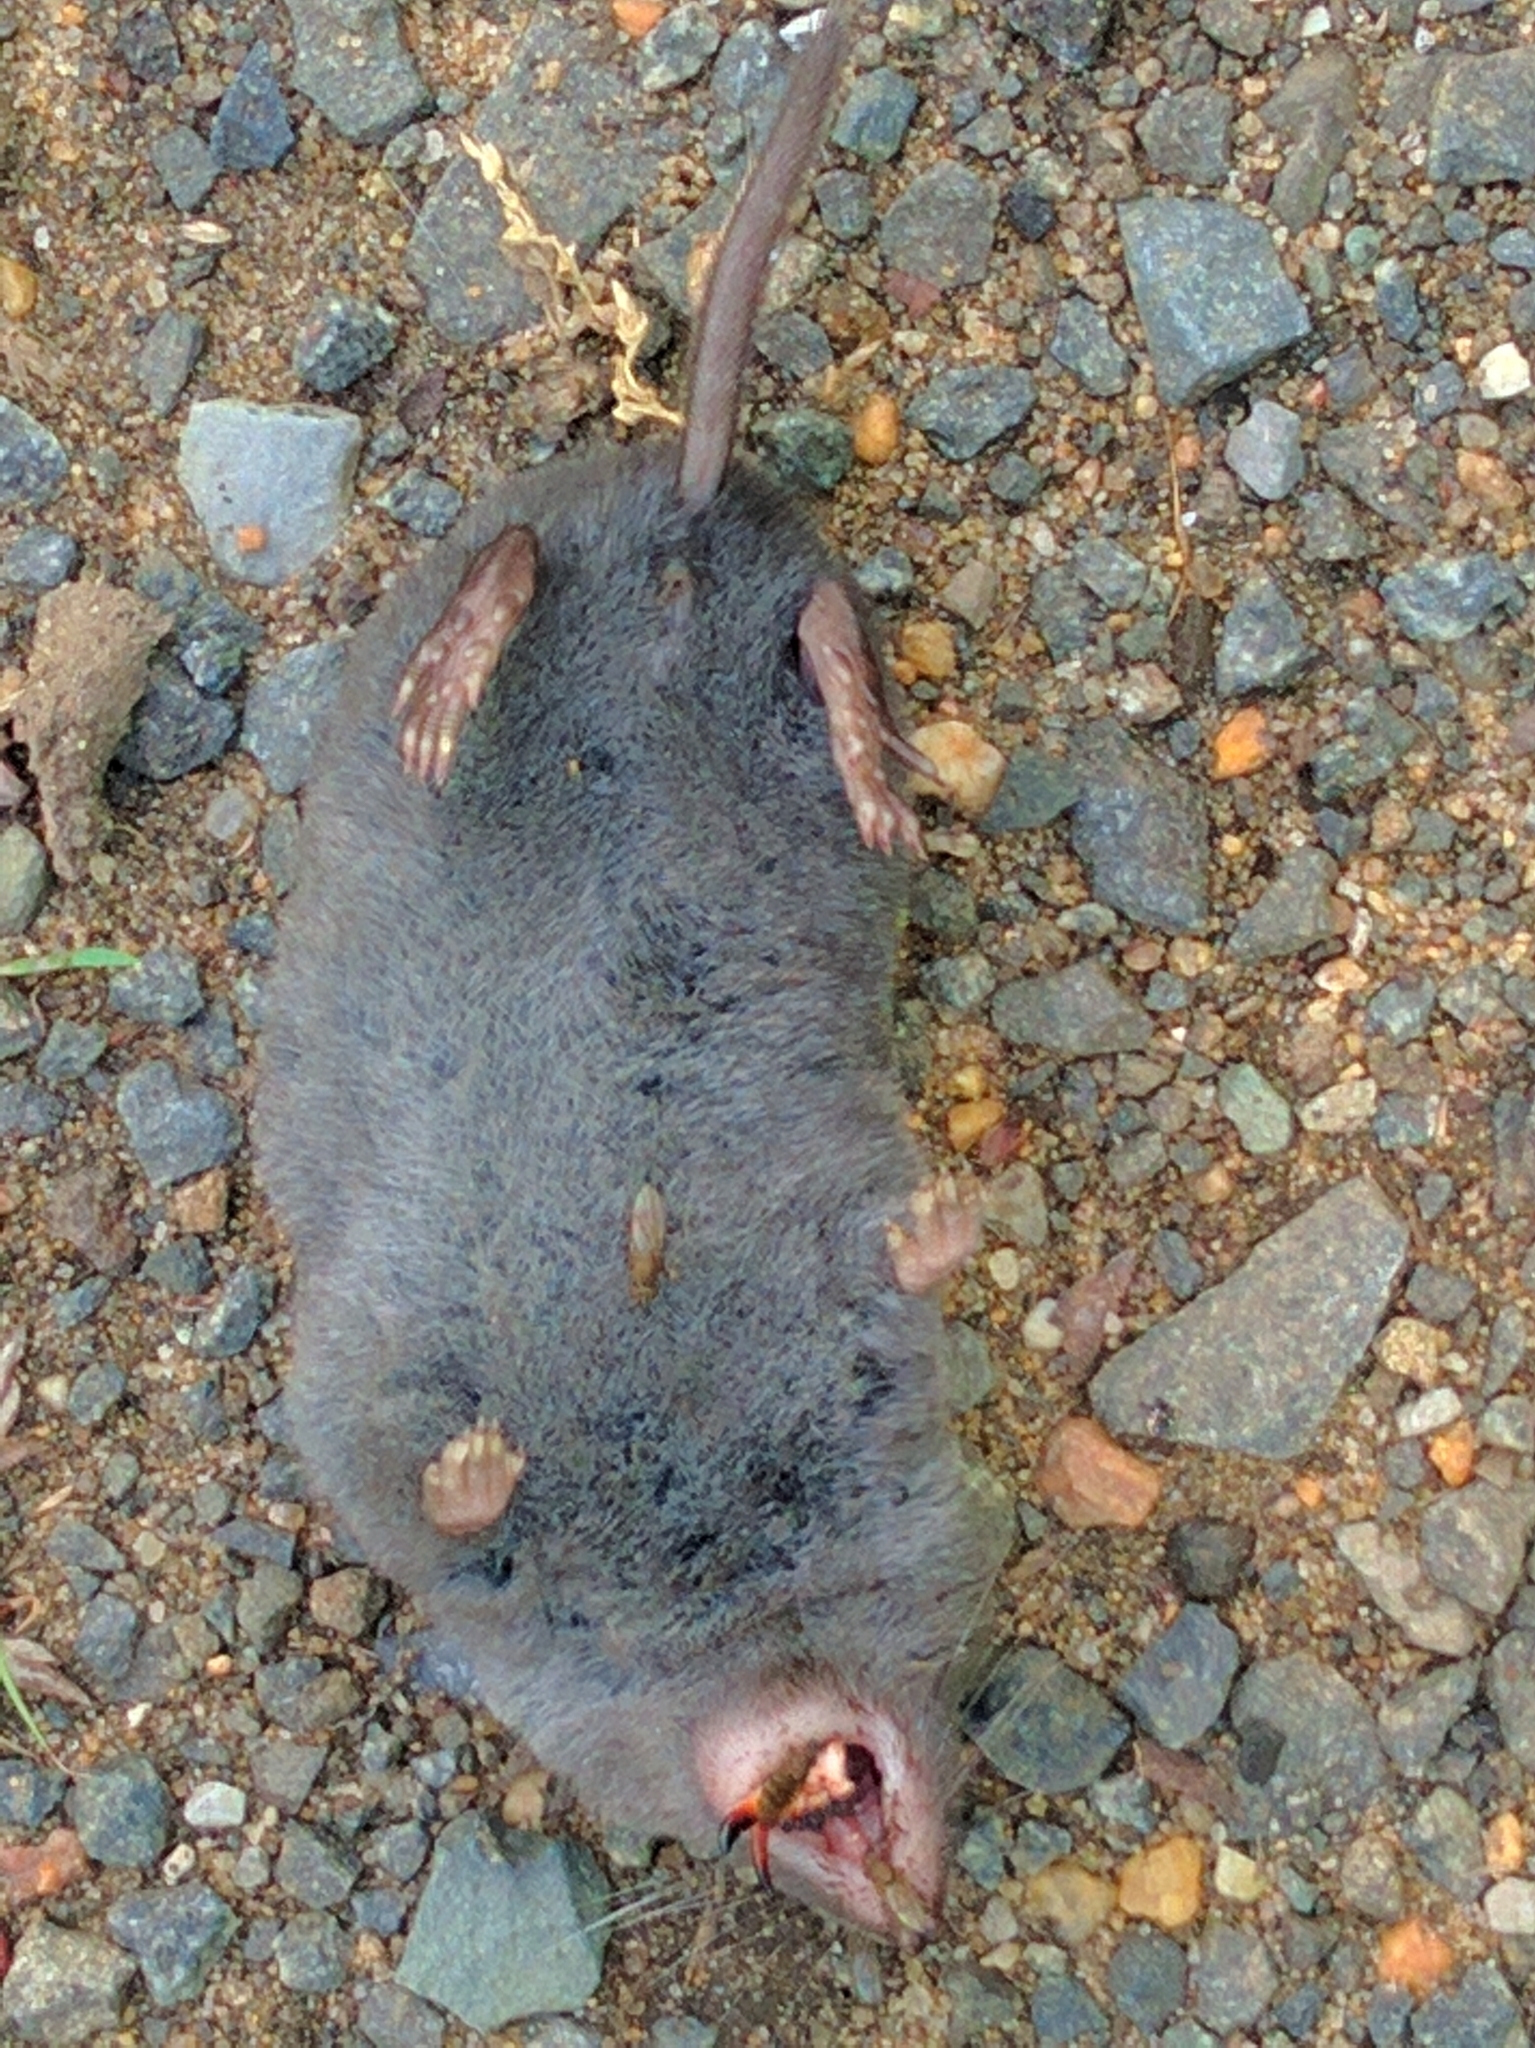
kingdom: Animalia
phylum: Chordata
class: Mammalia
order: Soricomorpha
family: Soricidae
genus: Blarina
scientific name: Blarina brevicauda
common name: Northern short-tailed shrew
